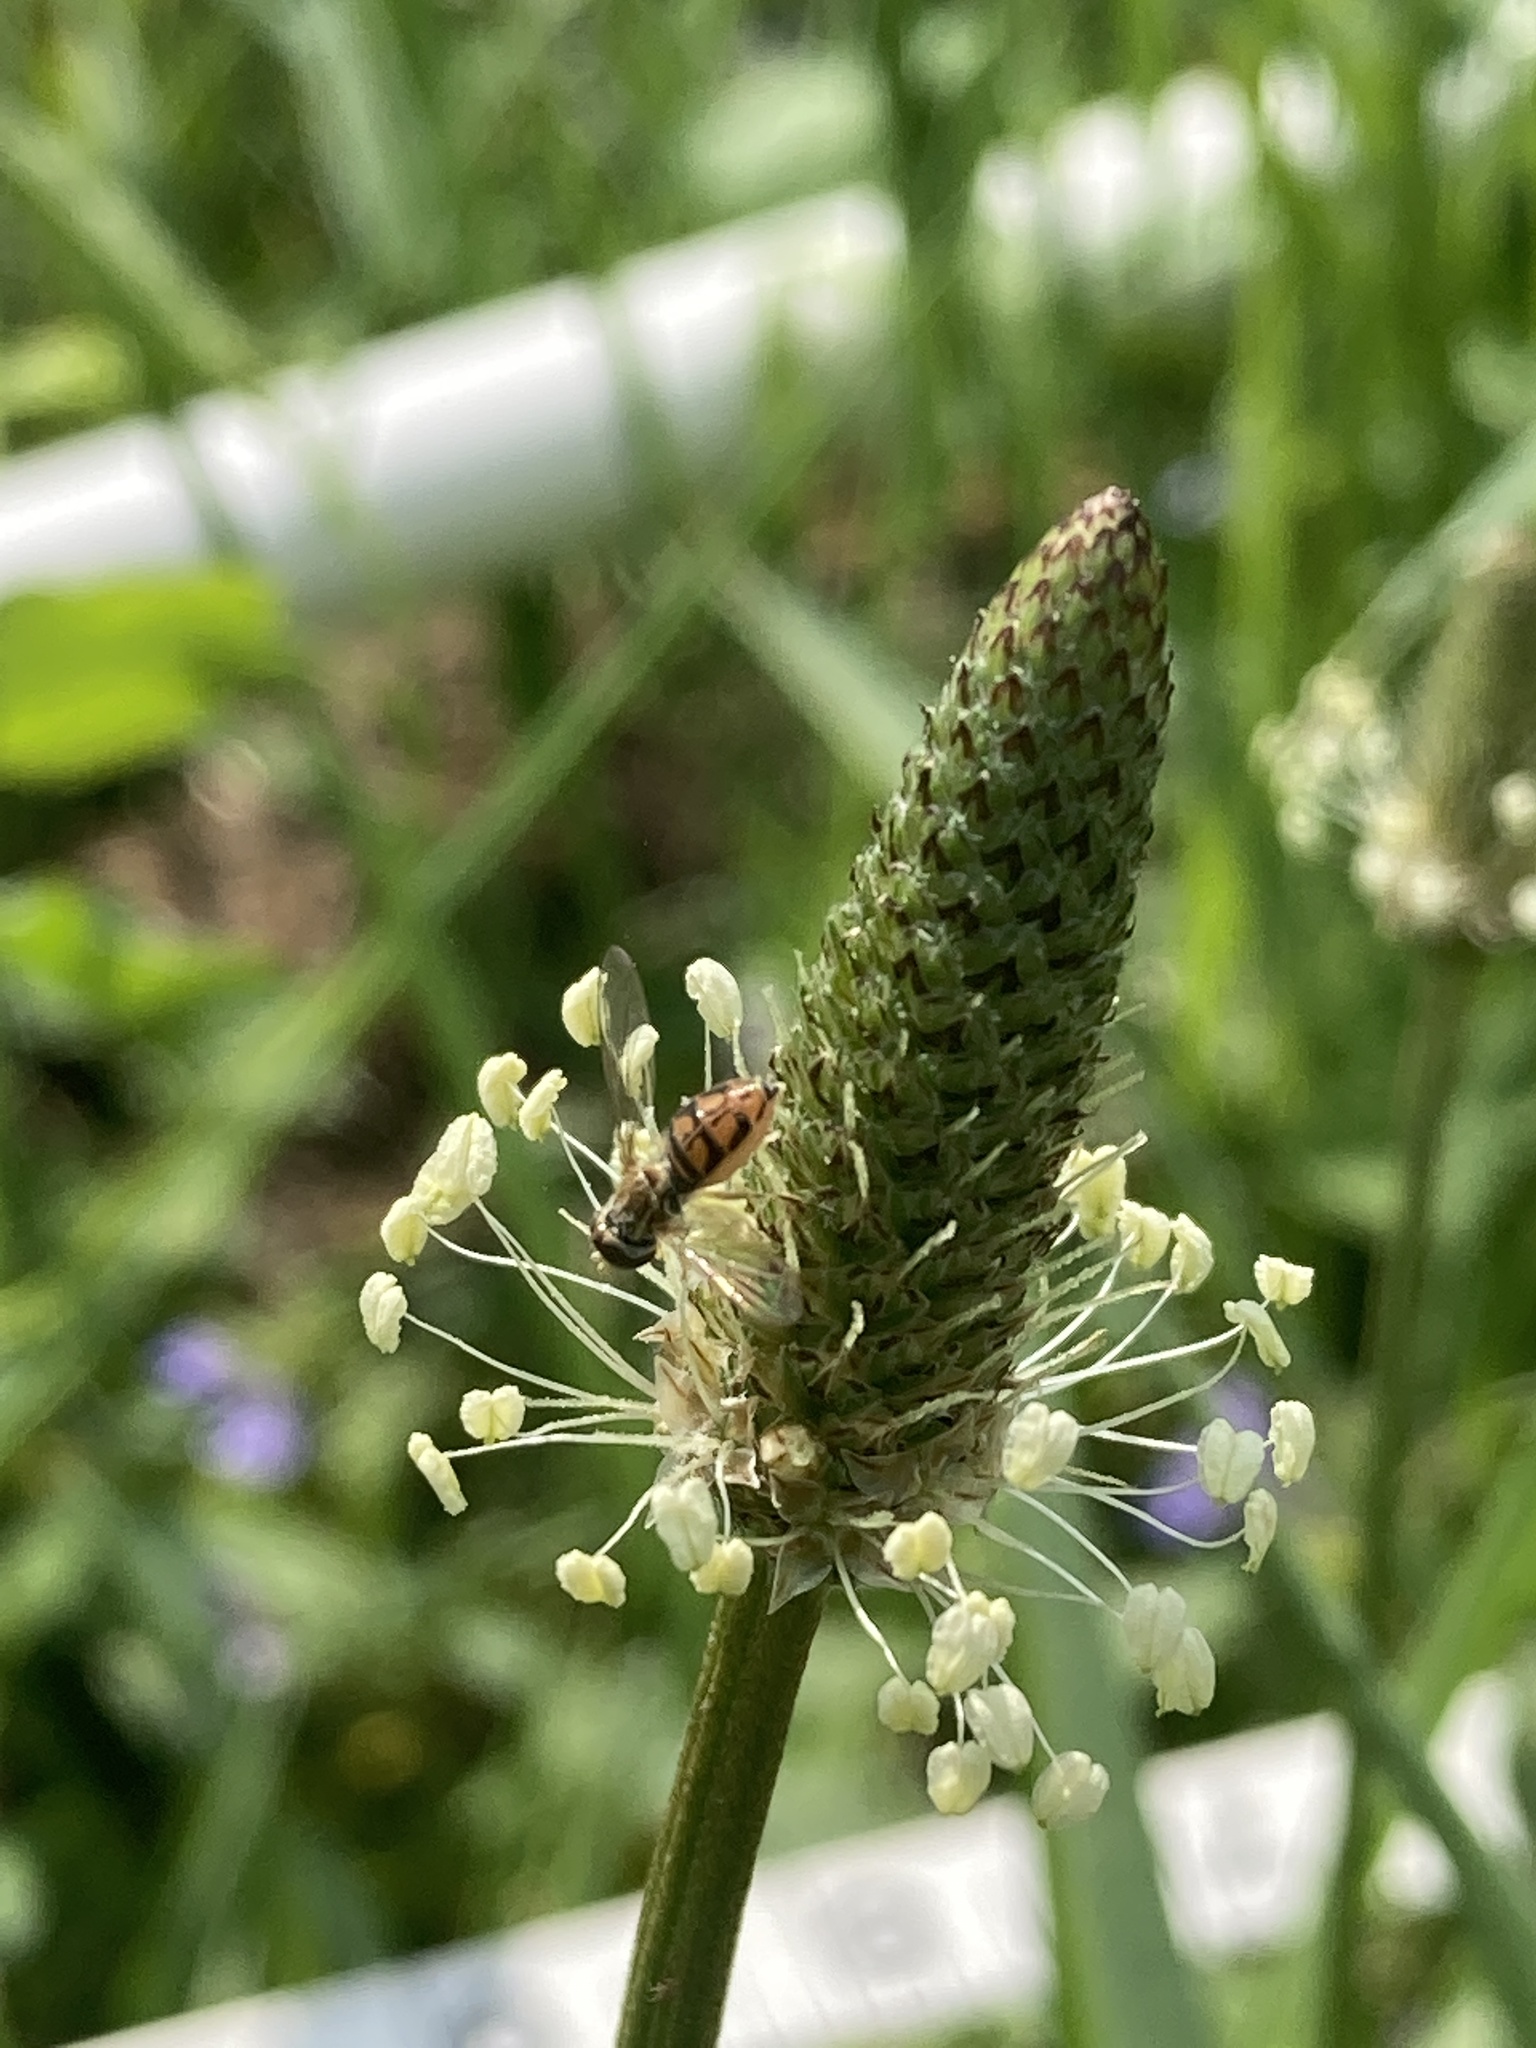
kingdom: Animalia
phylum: Arthropoda
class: Insecta
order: Diptera
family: Syrphidae
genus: Toxomerus
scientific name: Toxomerus marginatus
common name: Syrphid fly
